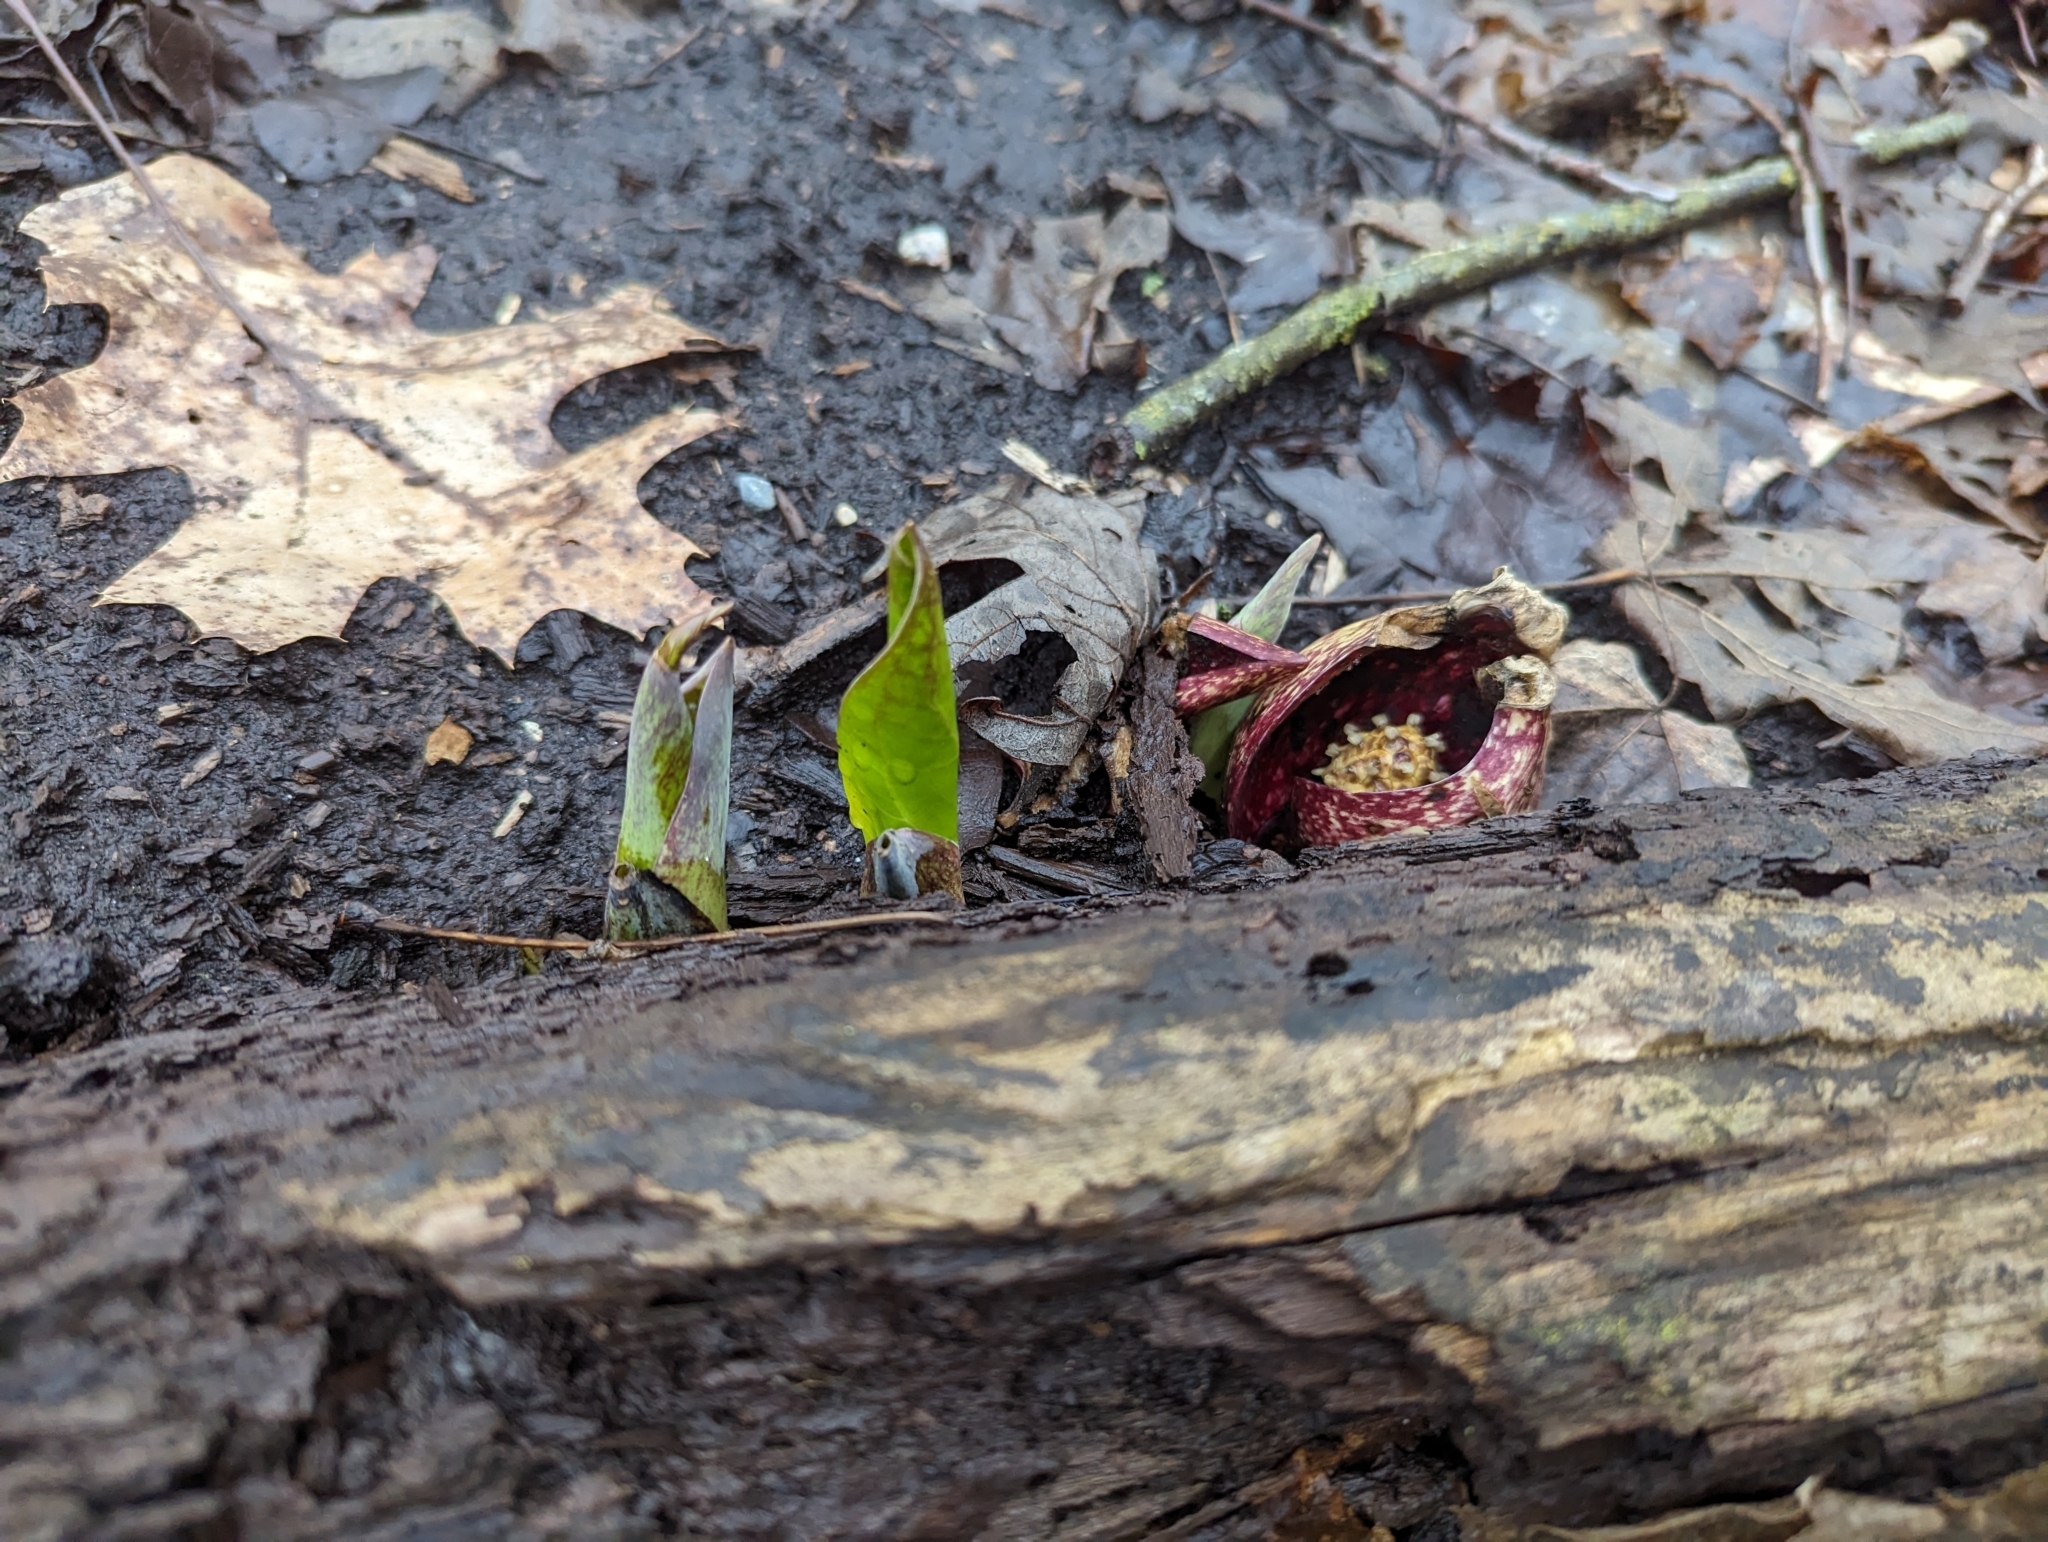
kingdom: Plantae
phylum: Tracheophyta
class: Liliopsida
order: Alismatales
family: Araceae
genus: Symplocarpus
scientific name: Symplocarpus foetidus
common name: Eastern skunk cabbage
